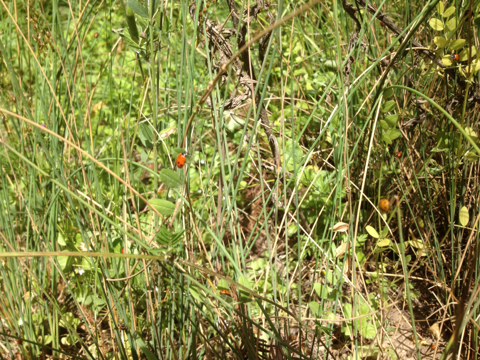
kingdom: Animalia
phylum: Arthropoda
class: Insecta
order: Coleoptera
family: Coccinellidae
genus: Hippodamia
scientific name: Hippodamia convergens
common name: Convergent lady beetle
